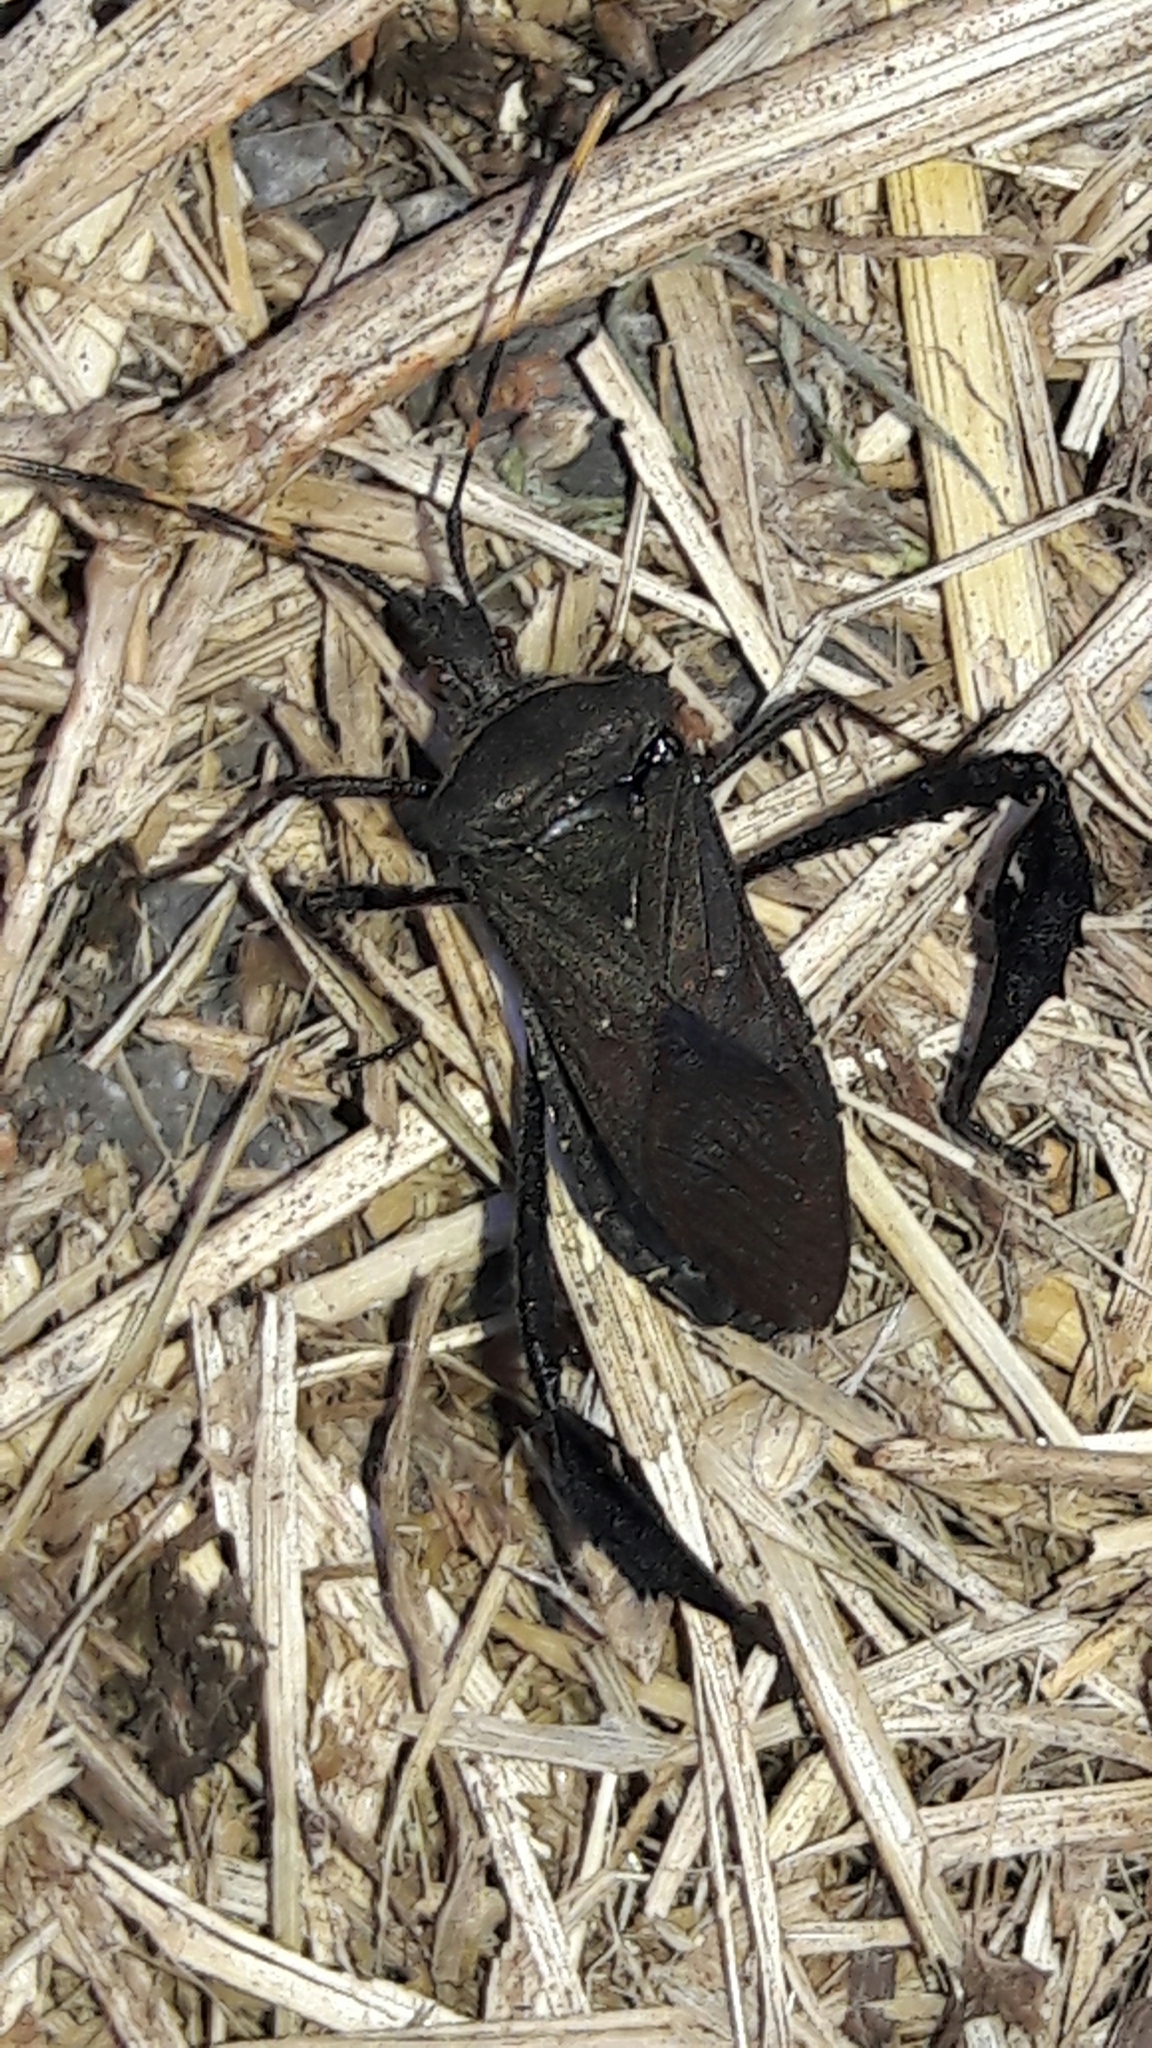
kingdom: Animalia
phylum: Arthropoda
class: Insecta
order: Hemiptera
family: Coreidae
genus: Leptoglossus
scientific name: Leptoglossus gonagra
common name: Citron bug
